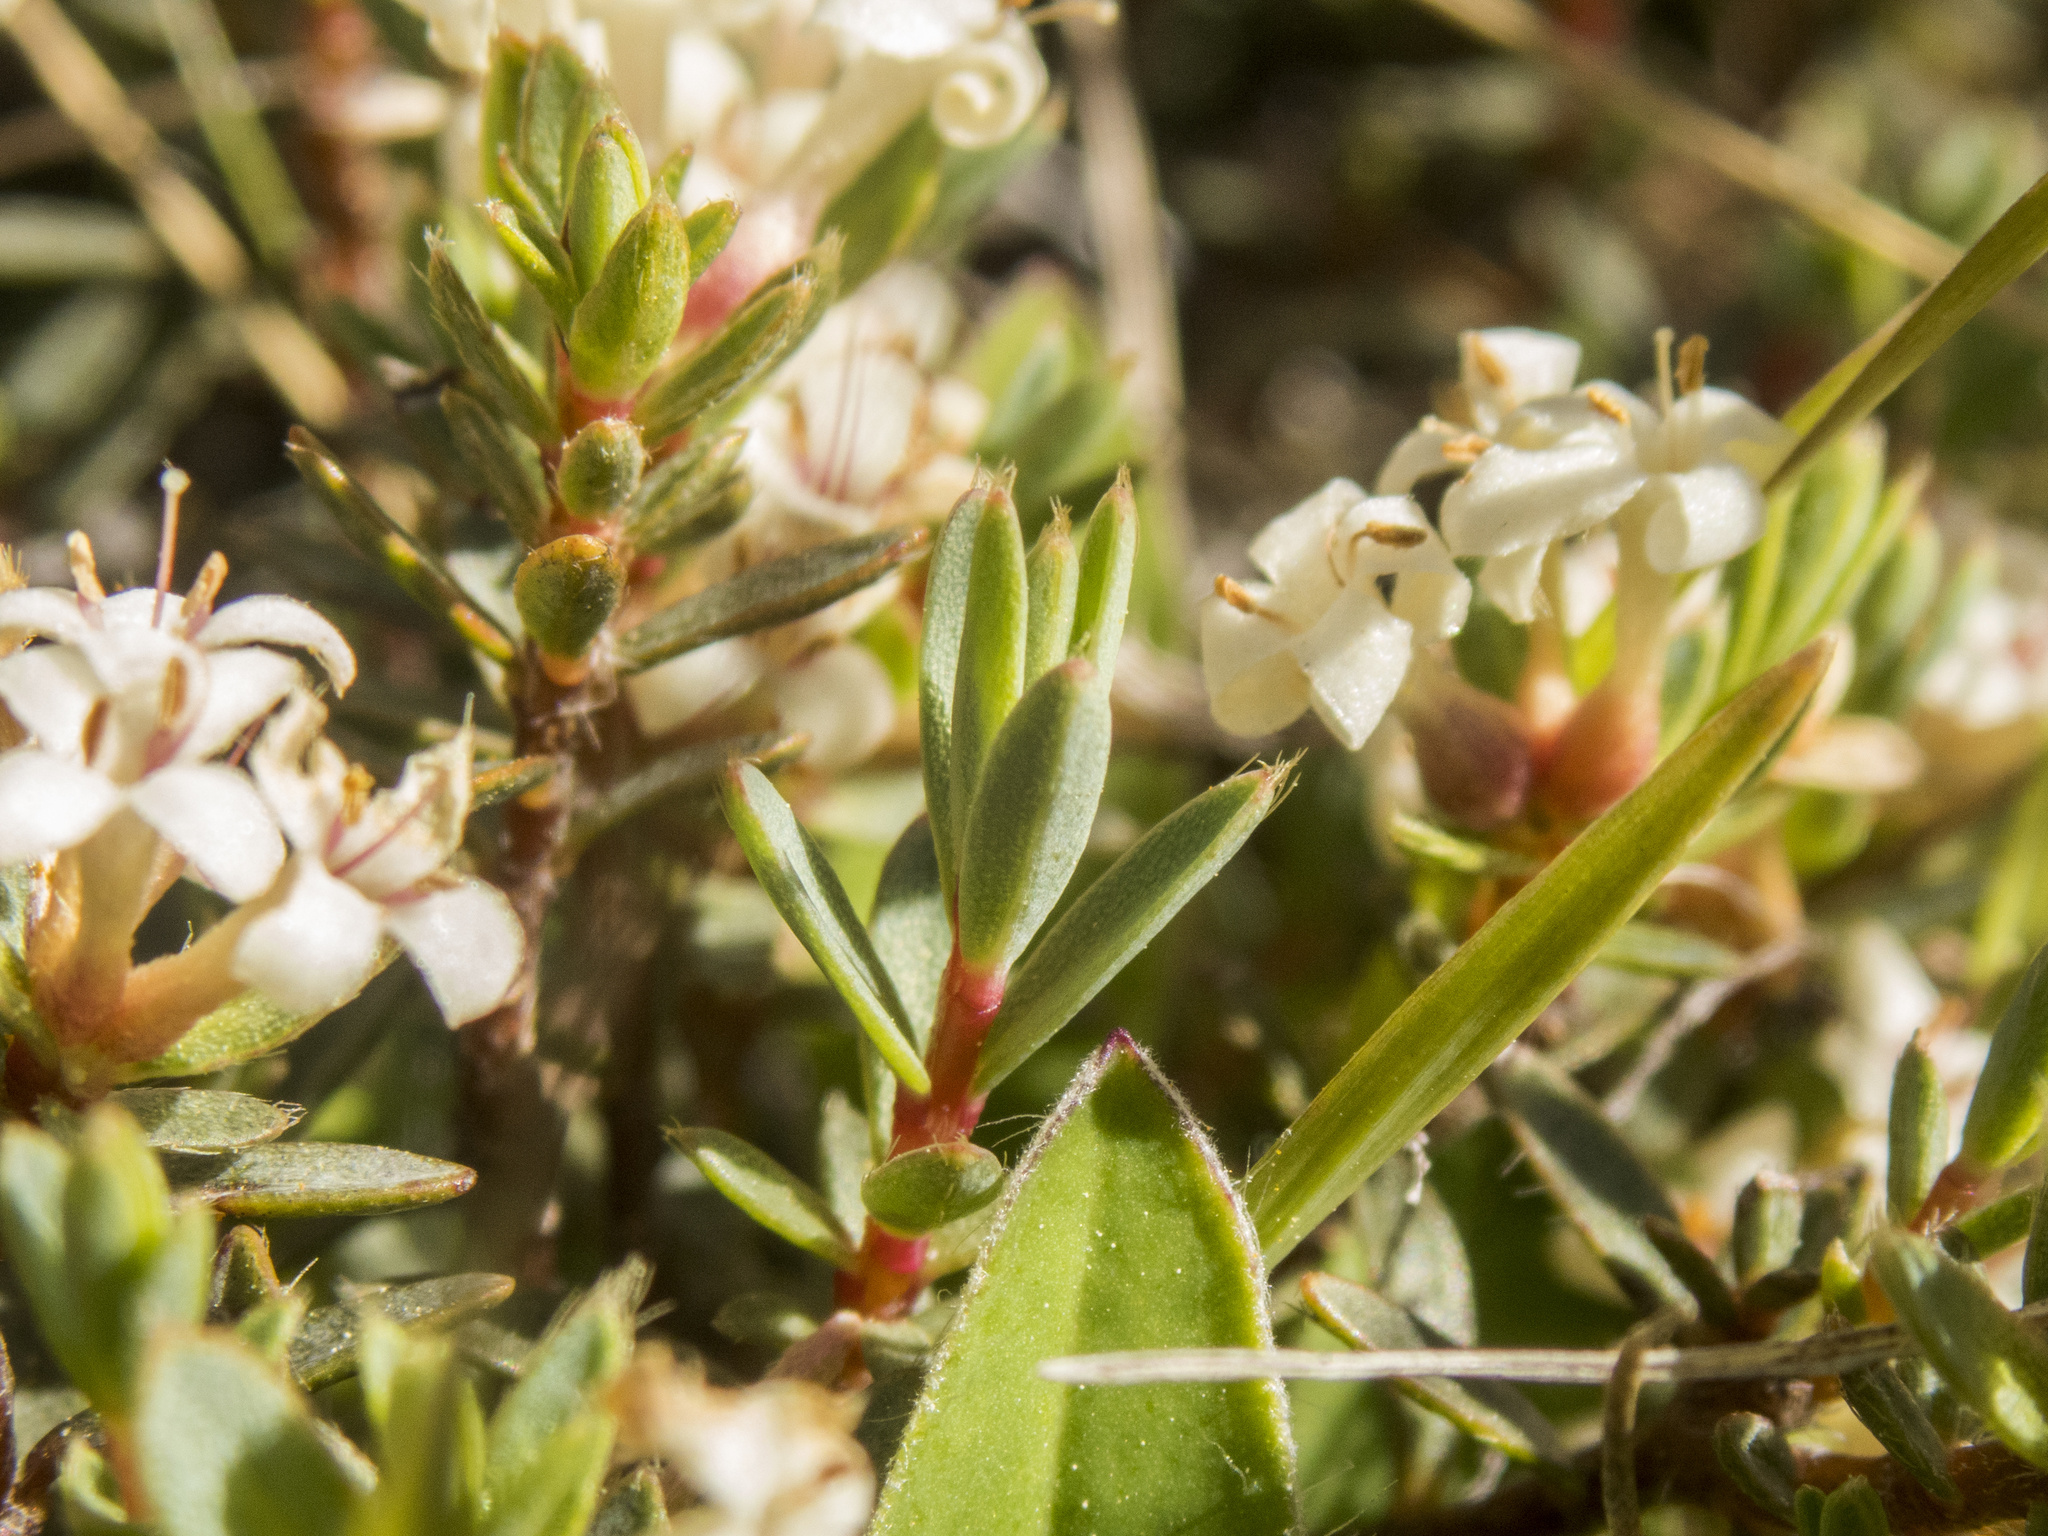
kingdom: Plantae
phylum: Tracheophyta
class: Magnoliopsida
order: Malvales
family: Thymelaeaceae
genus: Pimelea
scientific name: Pimelea oreophila
